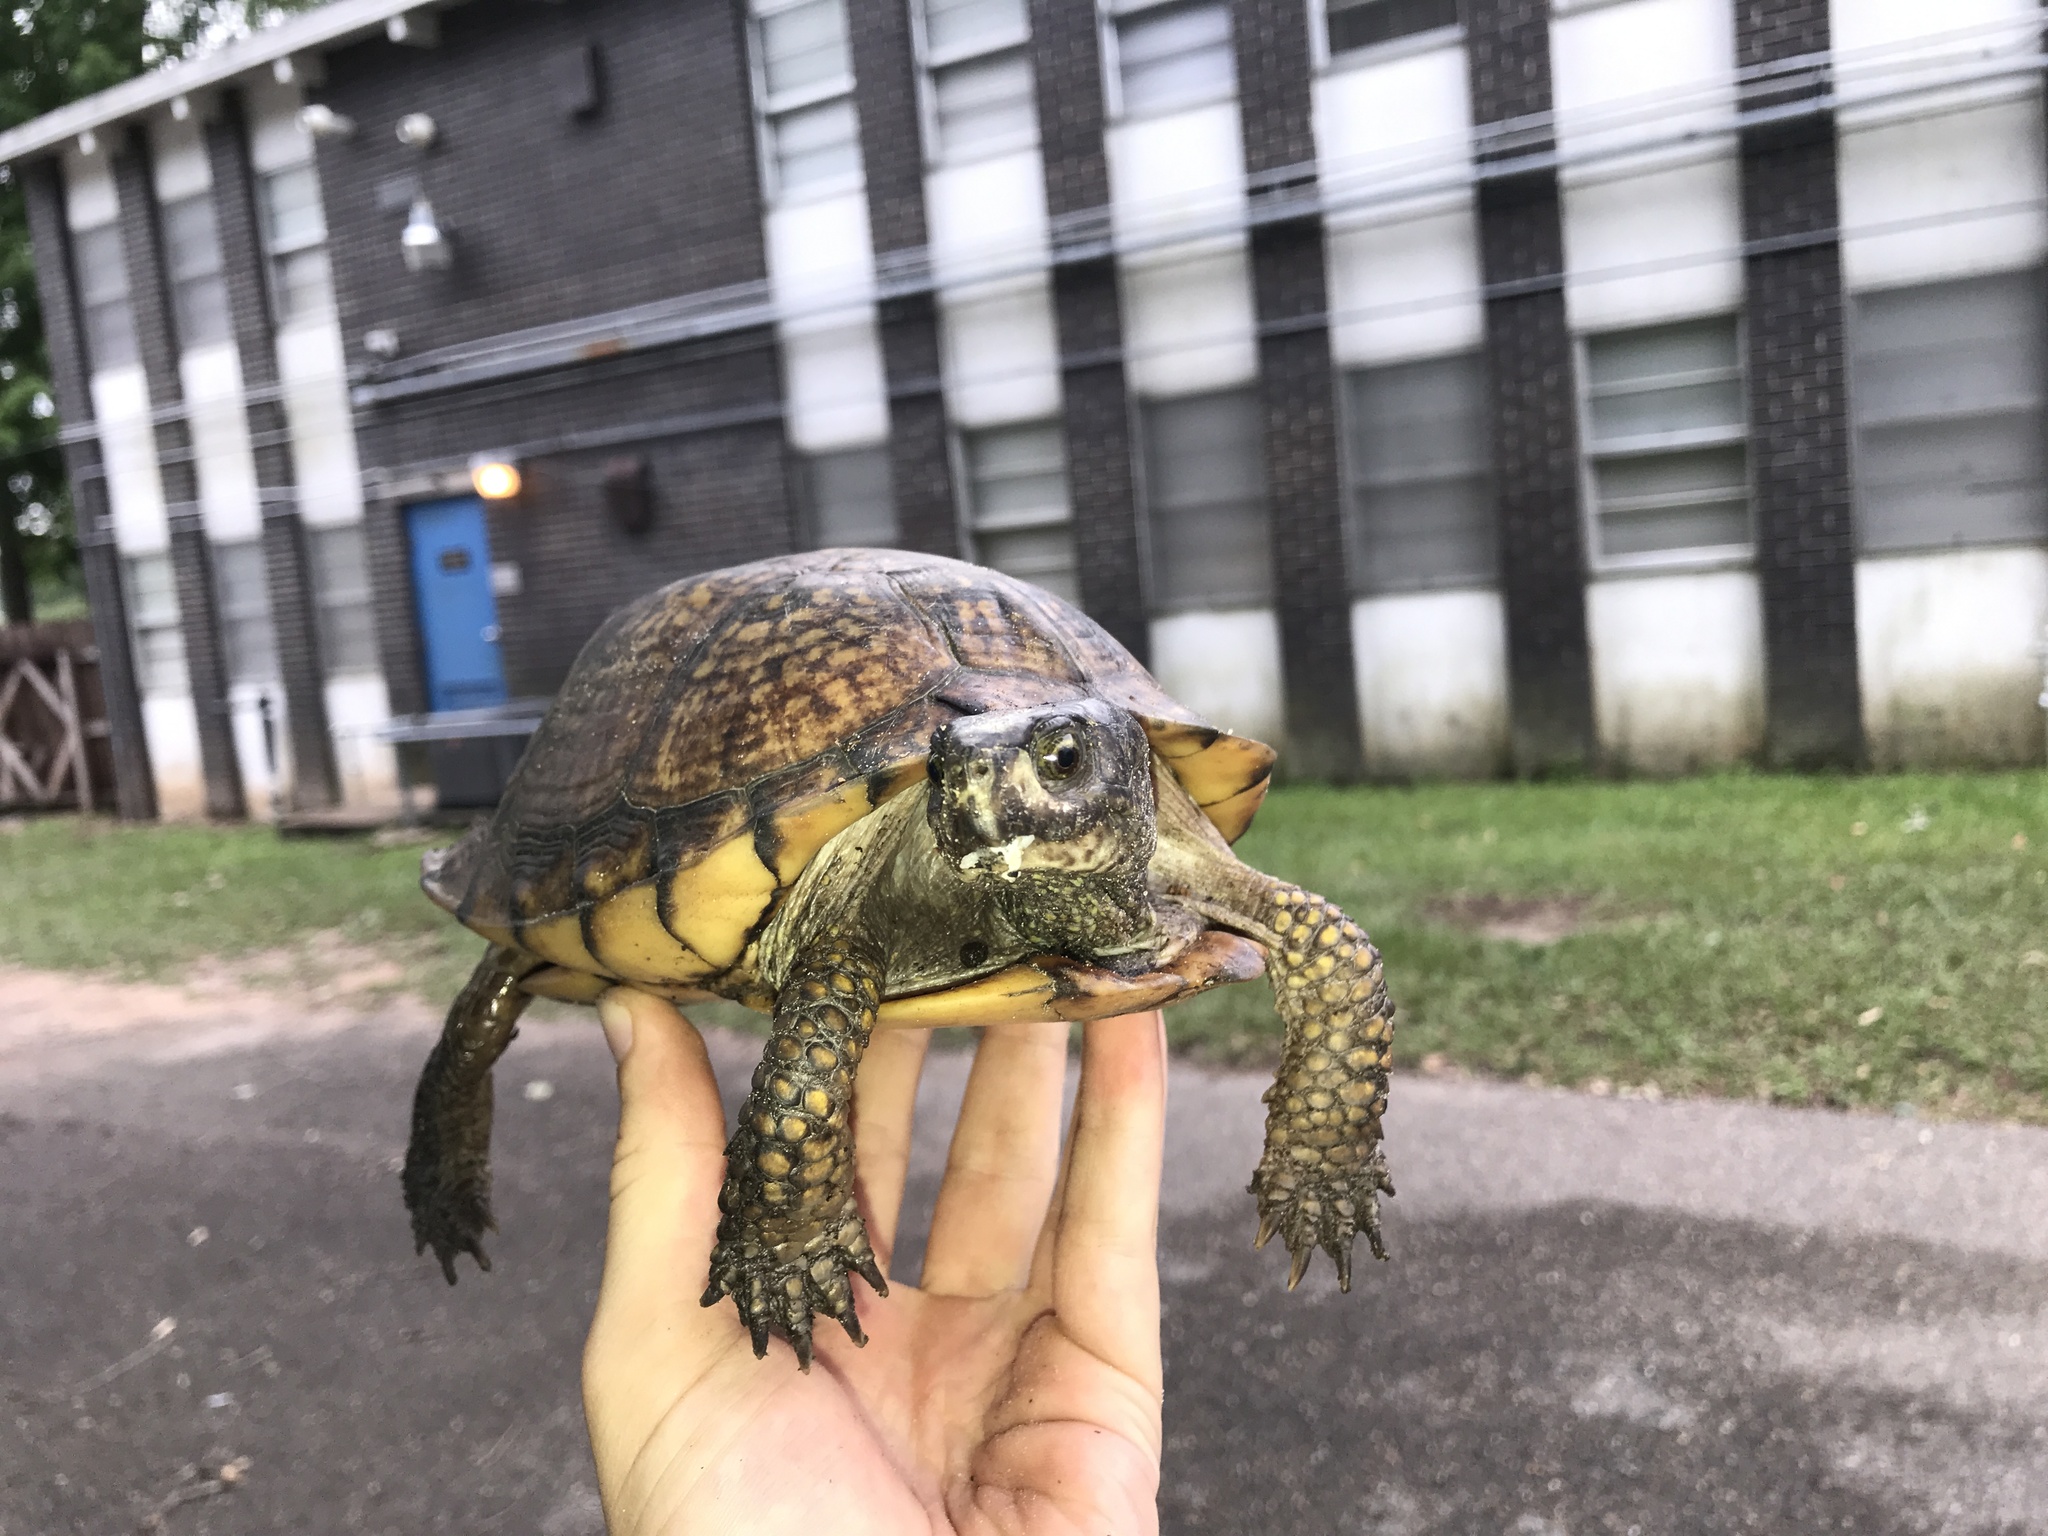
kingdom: Animalia
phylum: Chordata
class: Testudines
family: Emydidae
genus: Terrapene
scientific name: Terrapene carolina
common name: Common box turtle
